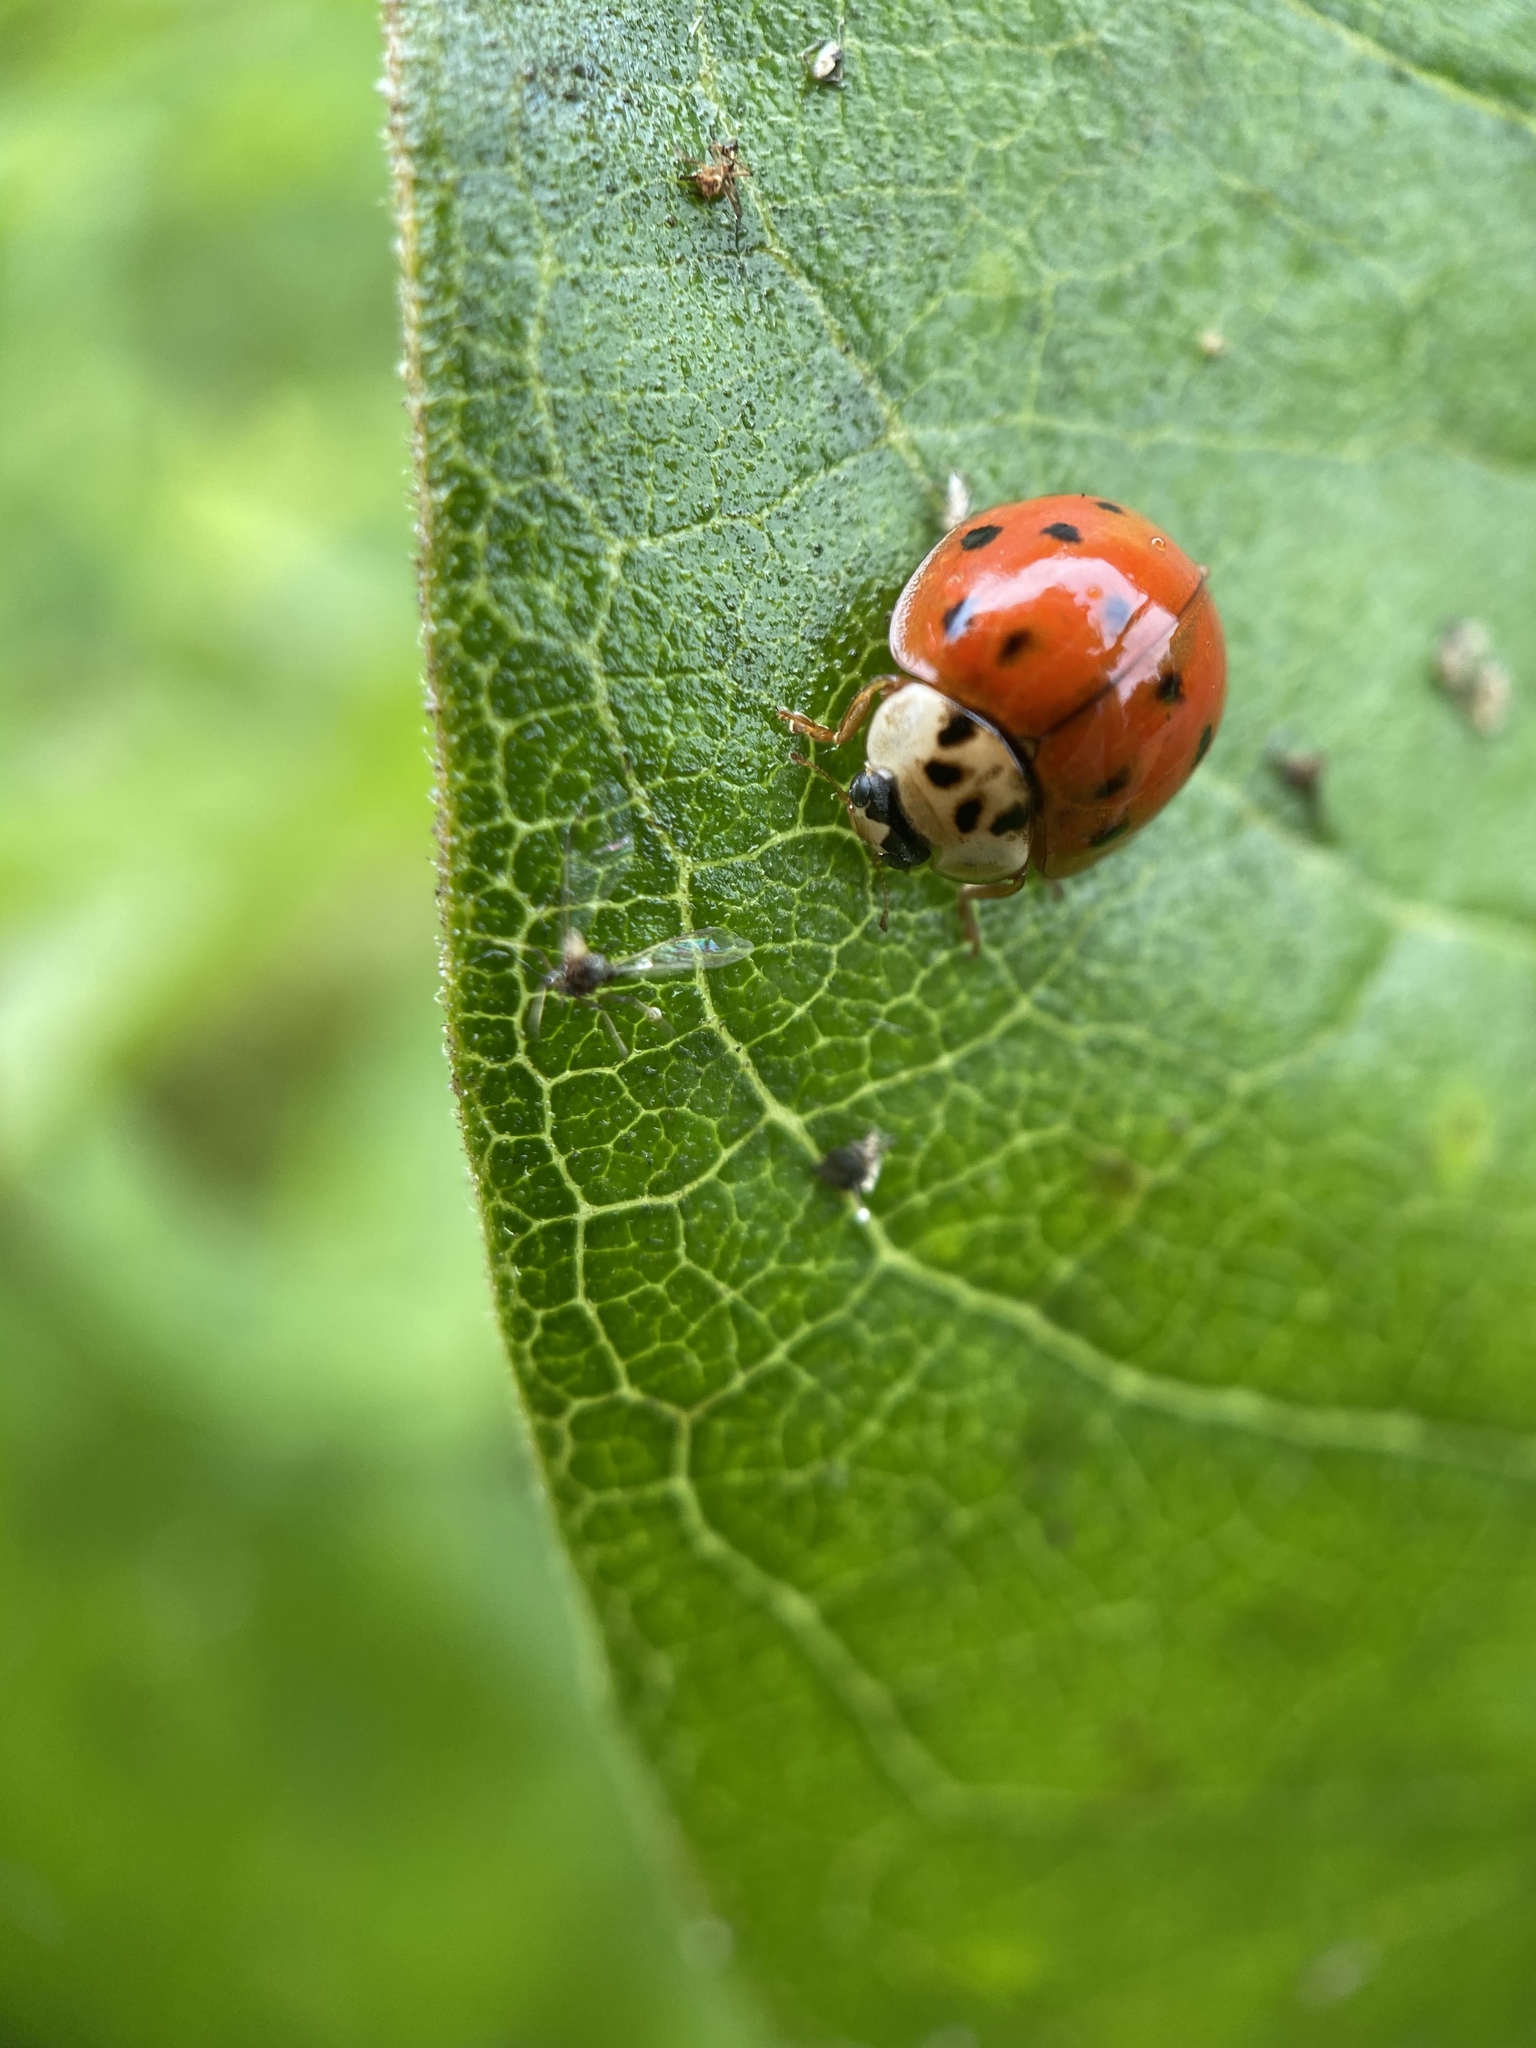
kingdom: Animalia
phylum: Arthropoda
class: Insecta
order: Coleoptera
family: Coccinellidae
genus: Harmonia
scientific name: Harmonia axyridis
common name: Harlequin ladybird
